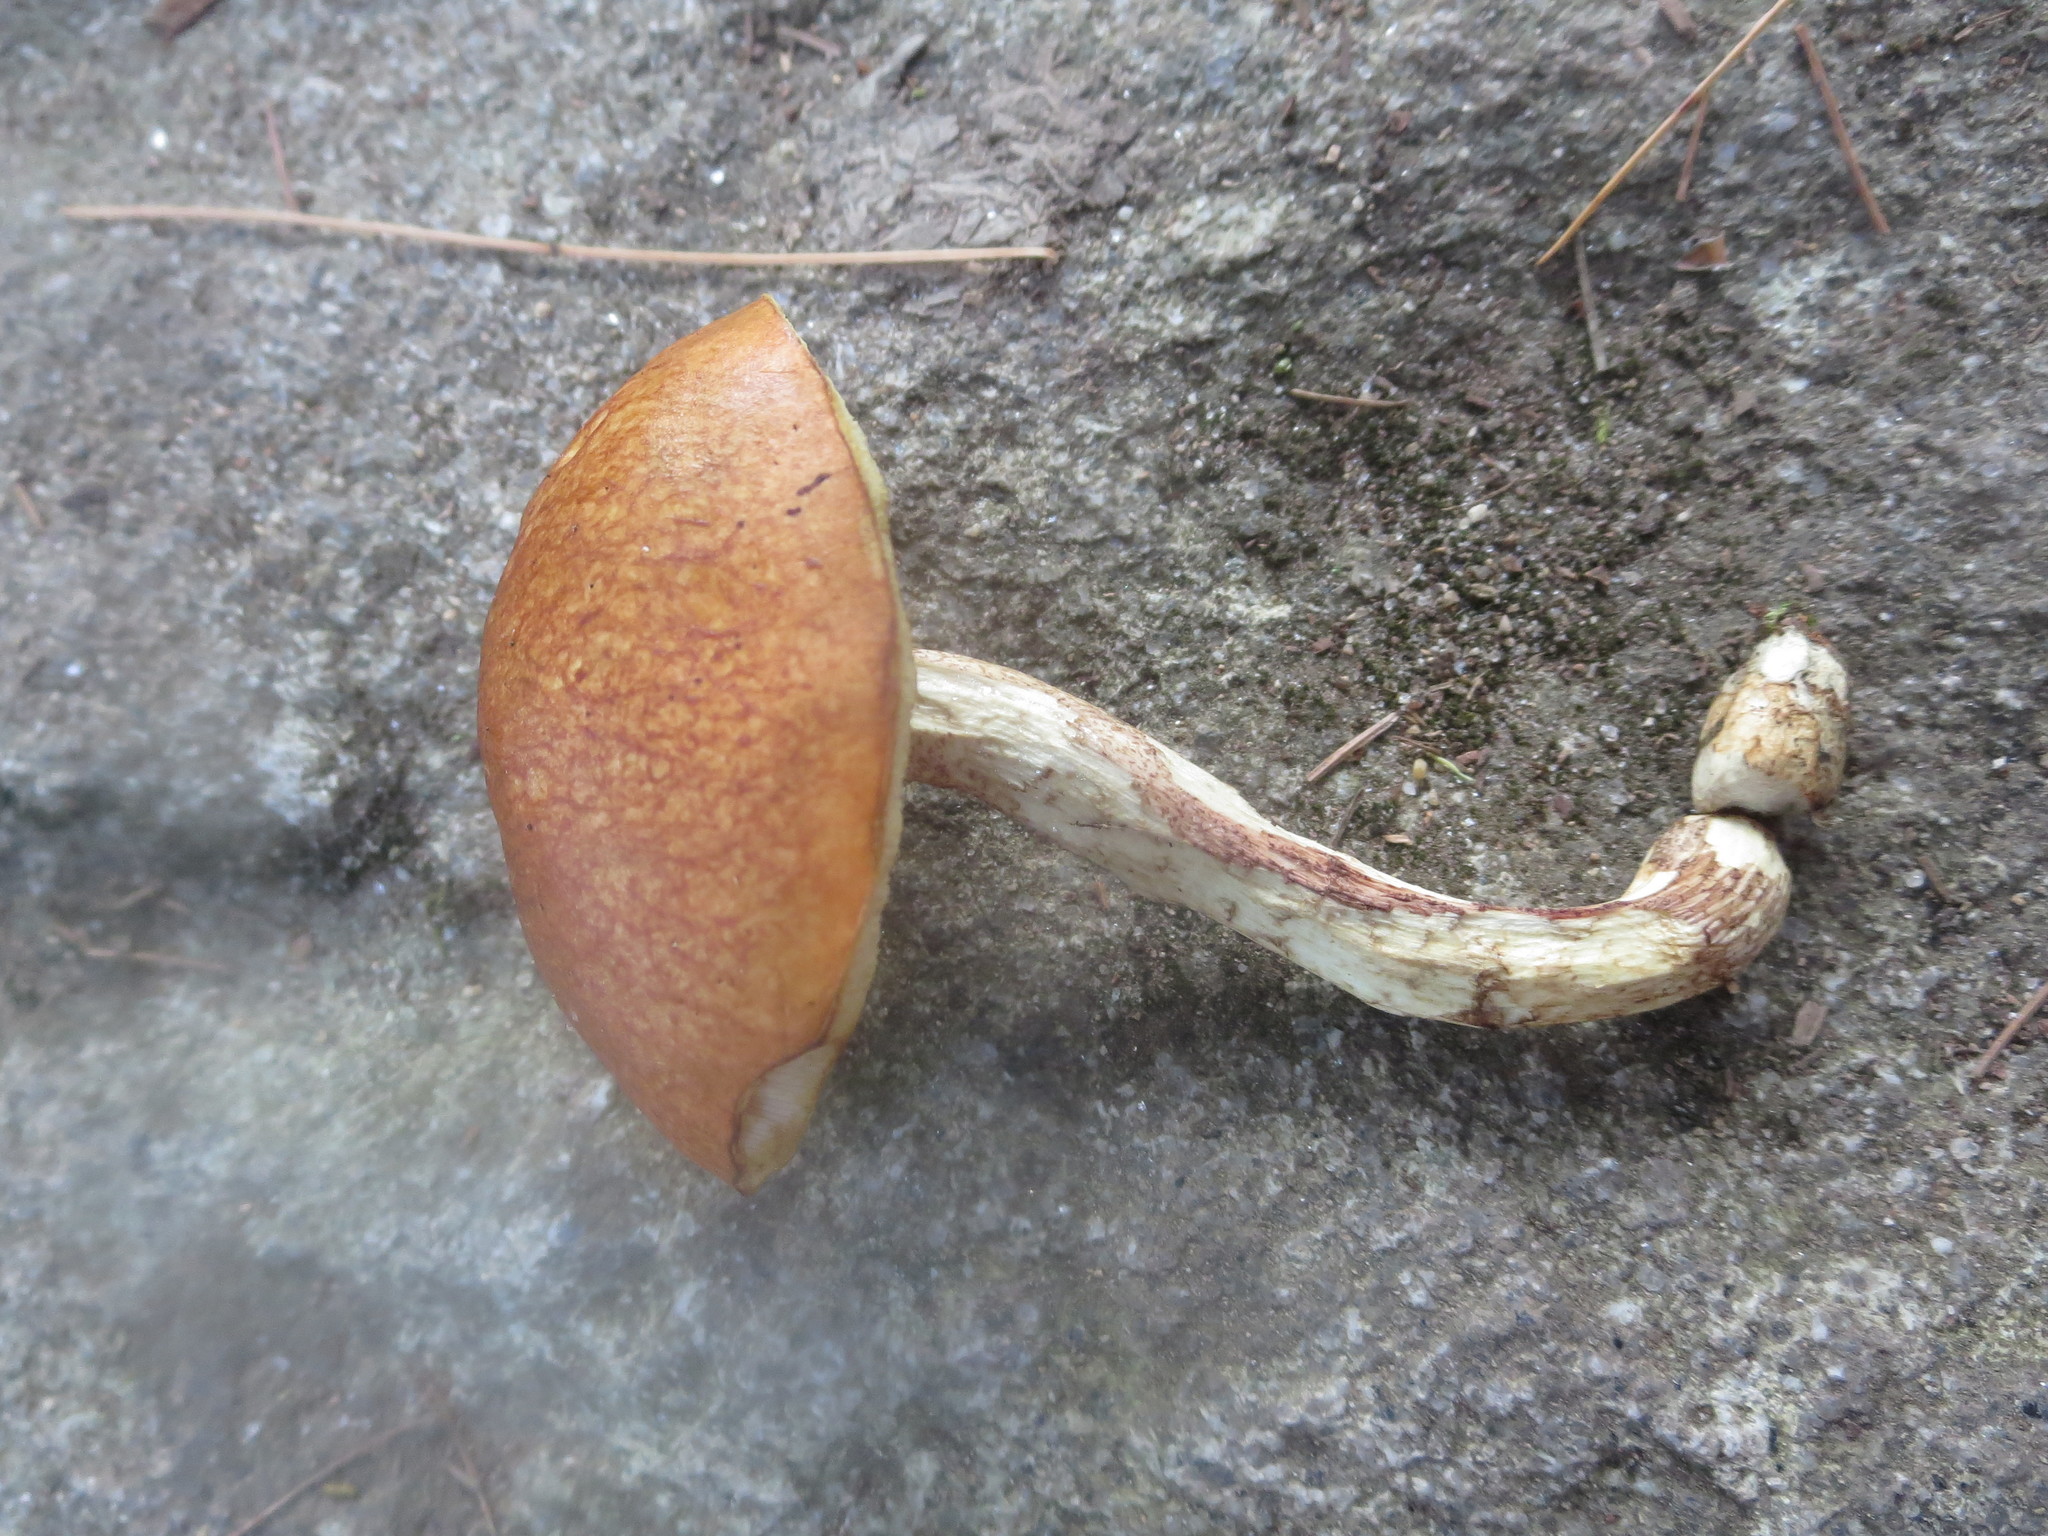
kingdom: Fungi
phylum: Basidiomycota
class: Agaricomycetes
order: Boletales
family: Boletaceae
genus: Leccinum
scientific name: Leccinum longicurvipes
